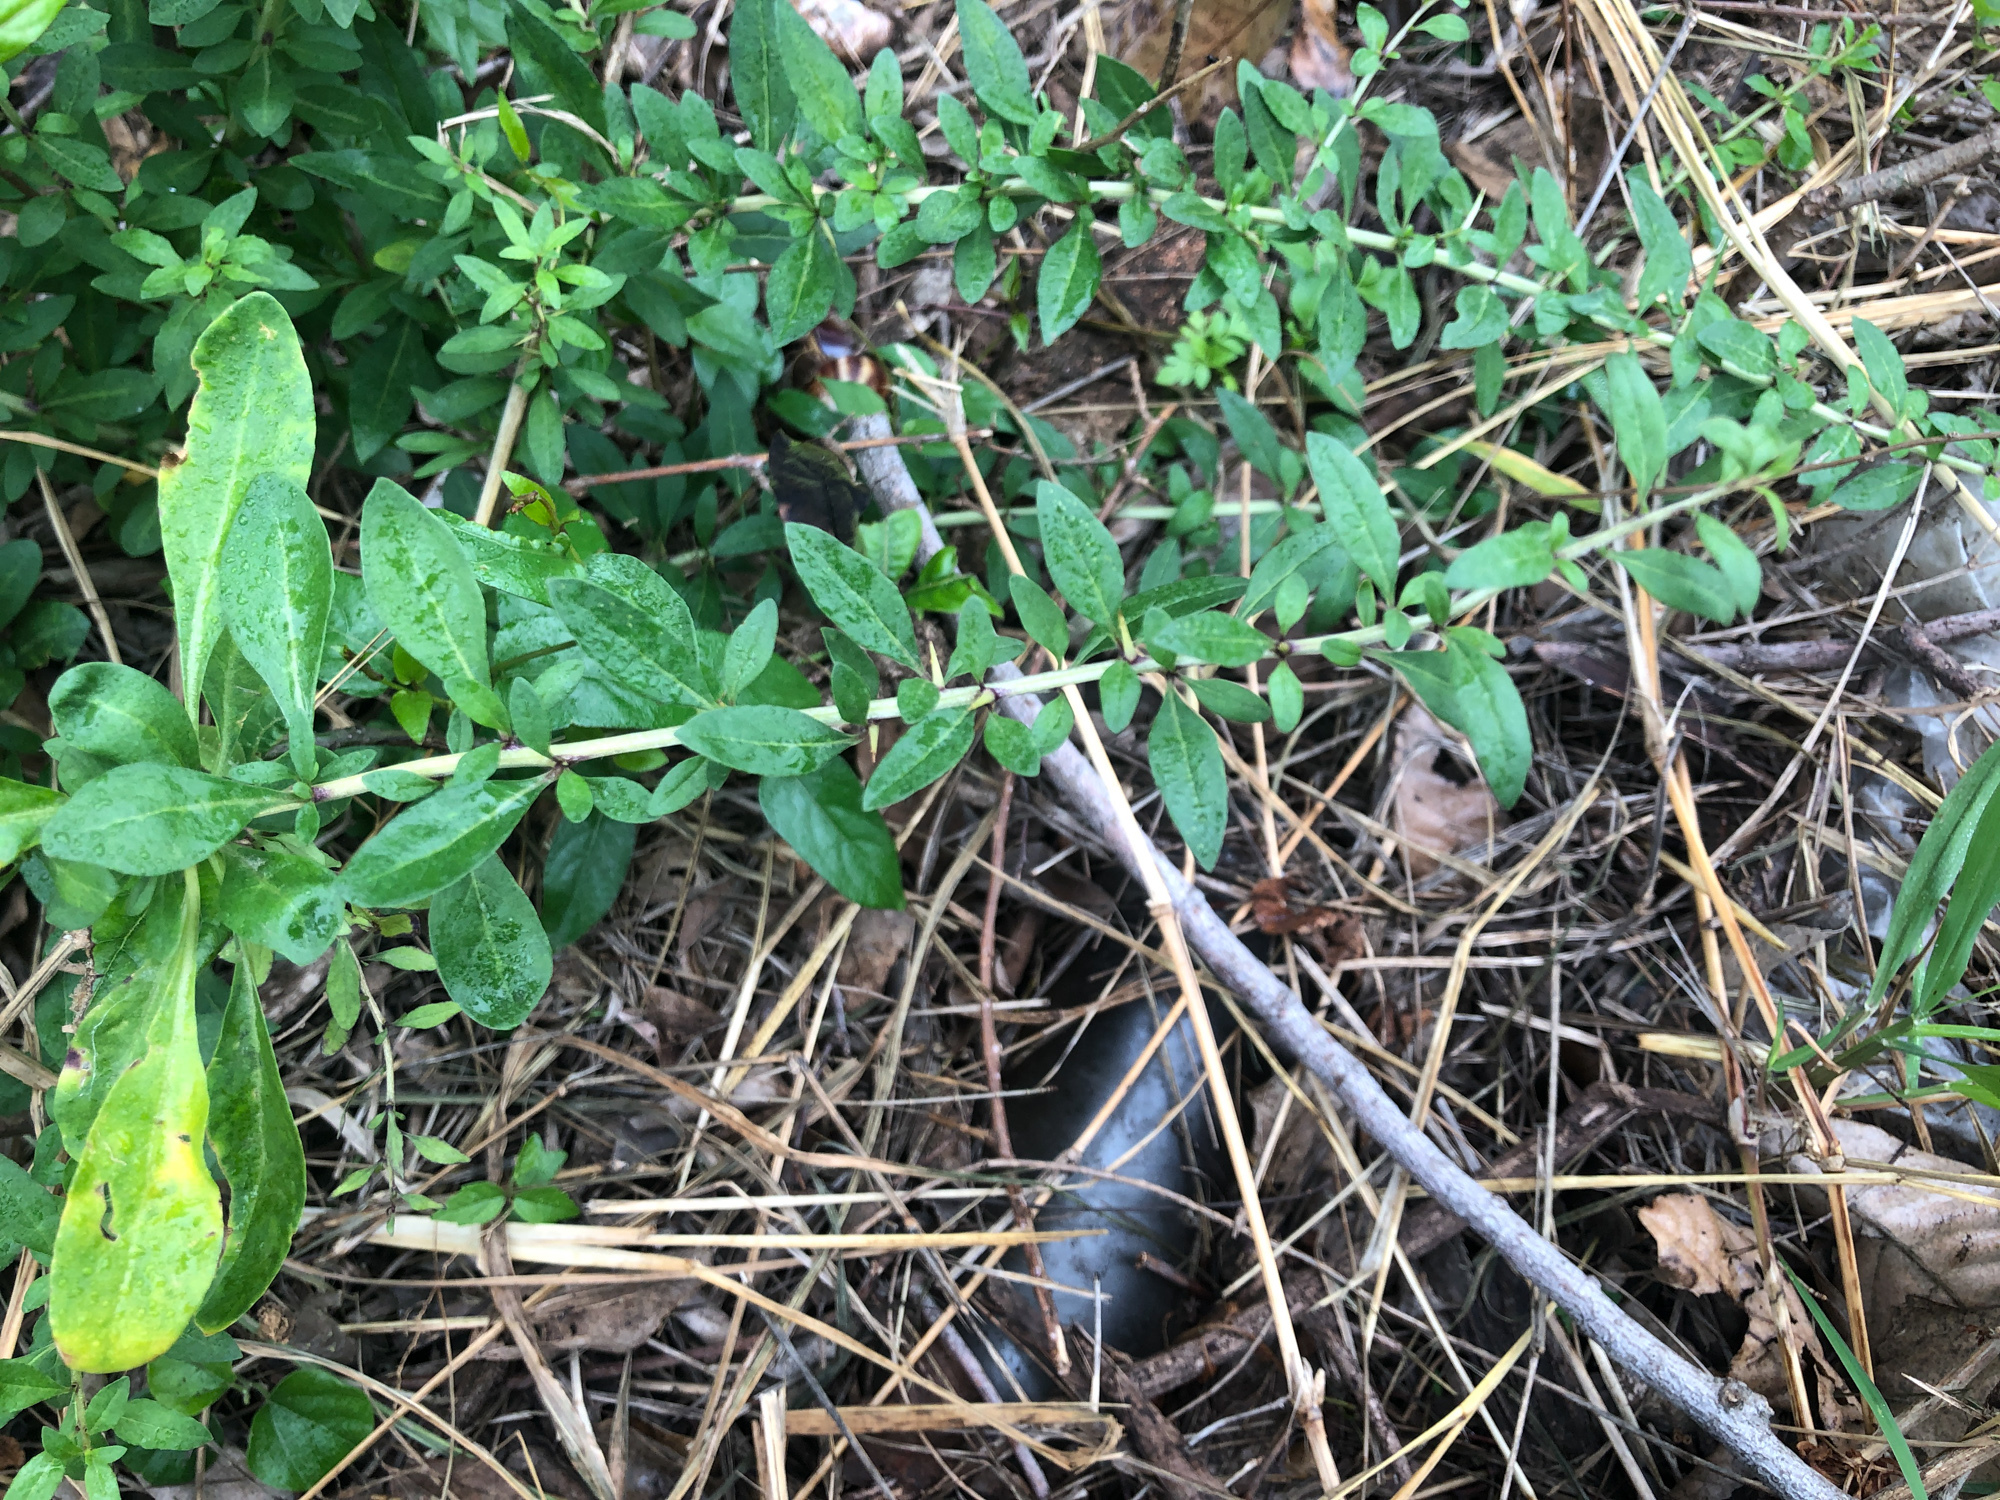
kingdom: Plantae
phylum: Tracheophyta
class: Magnoliopsida
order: Solanales
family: Solanaceae
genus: Lycium
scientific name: Lycium chinense
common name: Chinese teaplant
